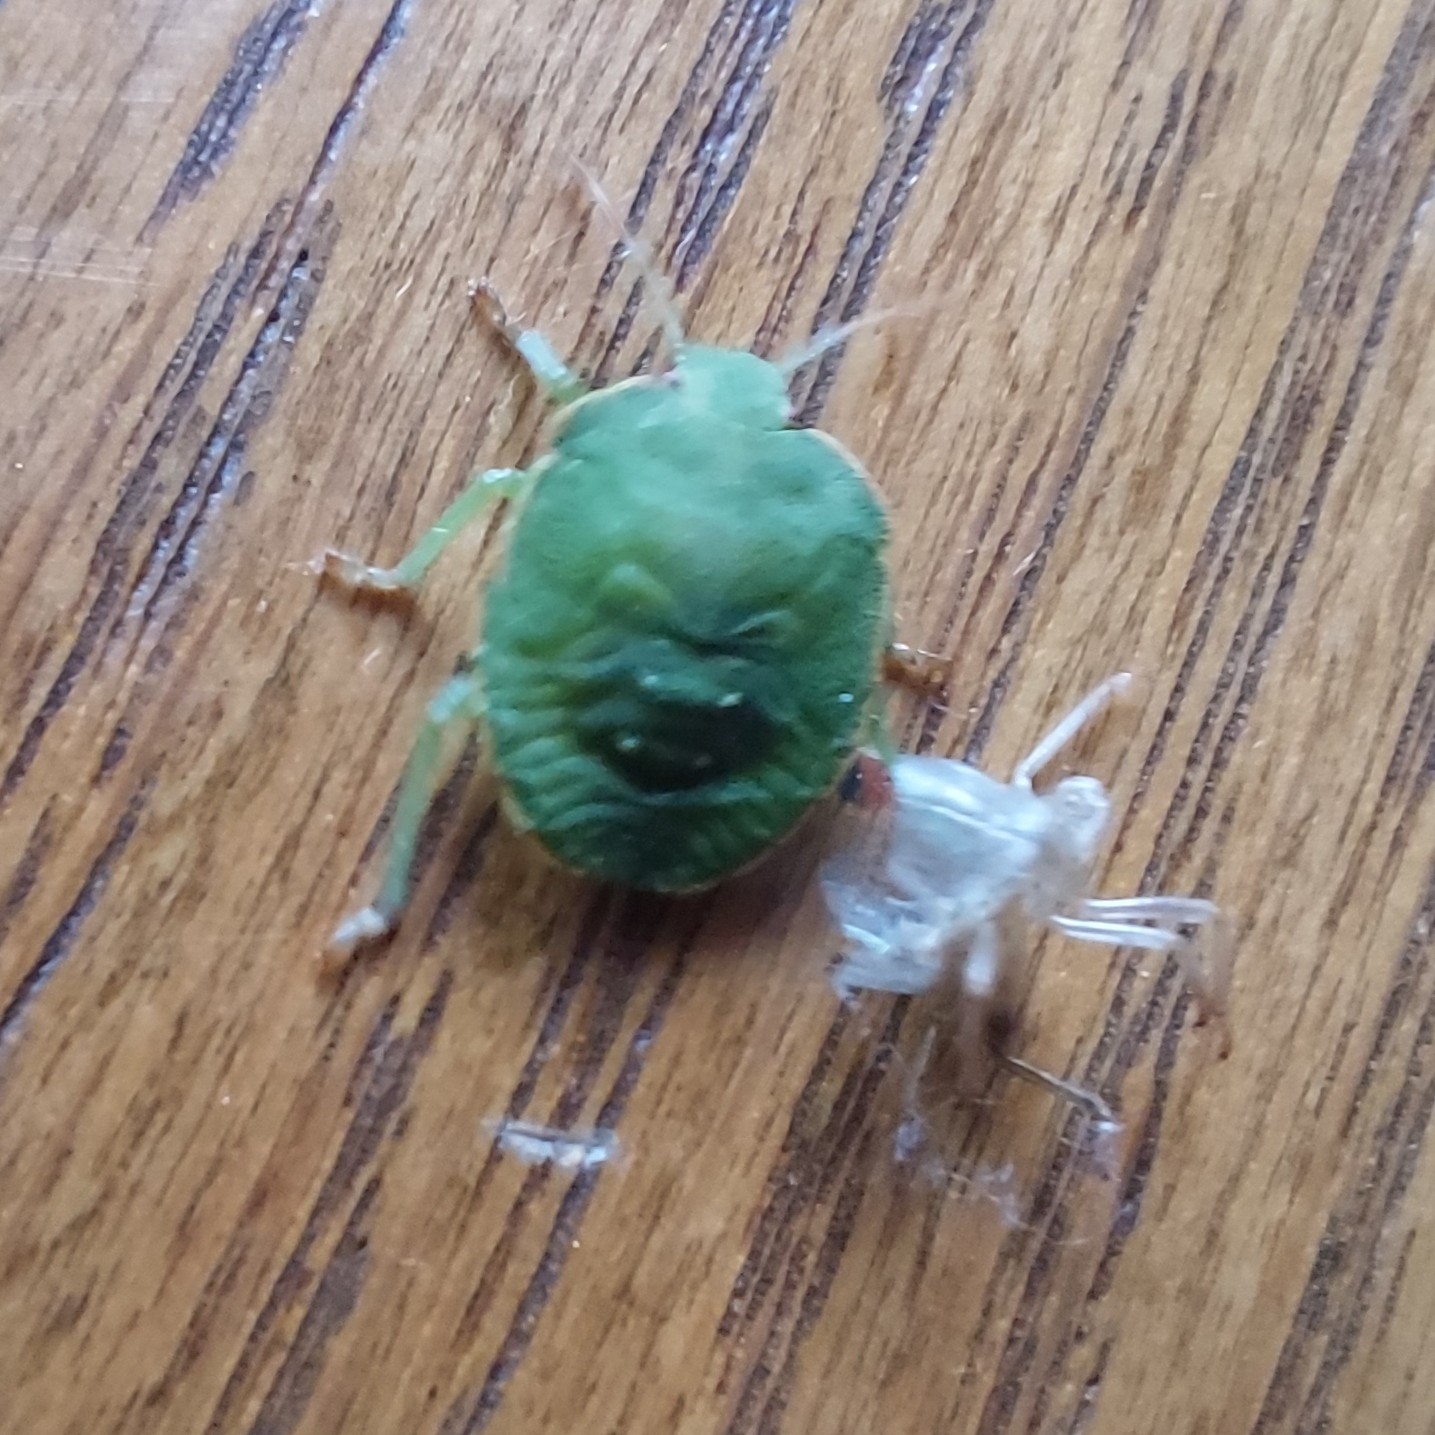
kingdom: Animalia
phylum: Arthropoda
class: Insecta
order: Hemiptera
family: Pentatomidae
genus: Palomena
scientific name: Palomena prasina
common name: Green shieldbug
